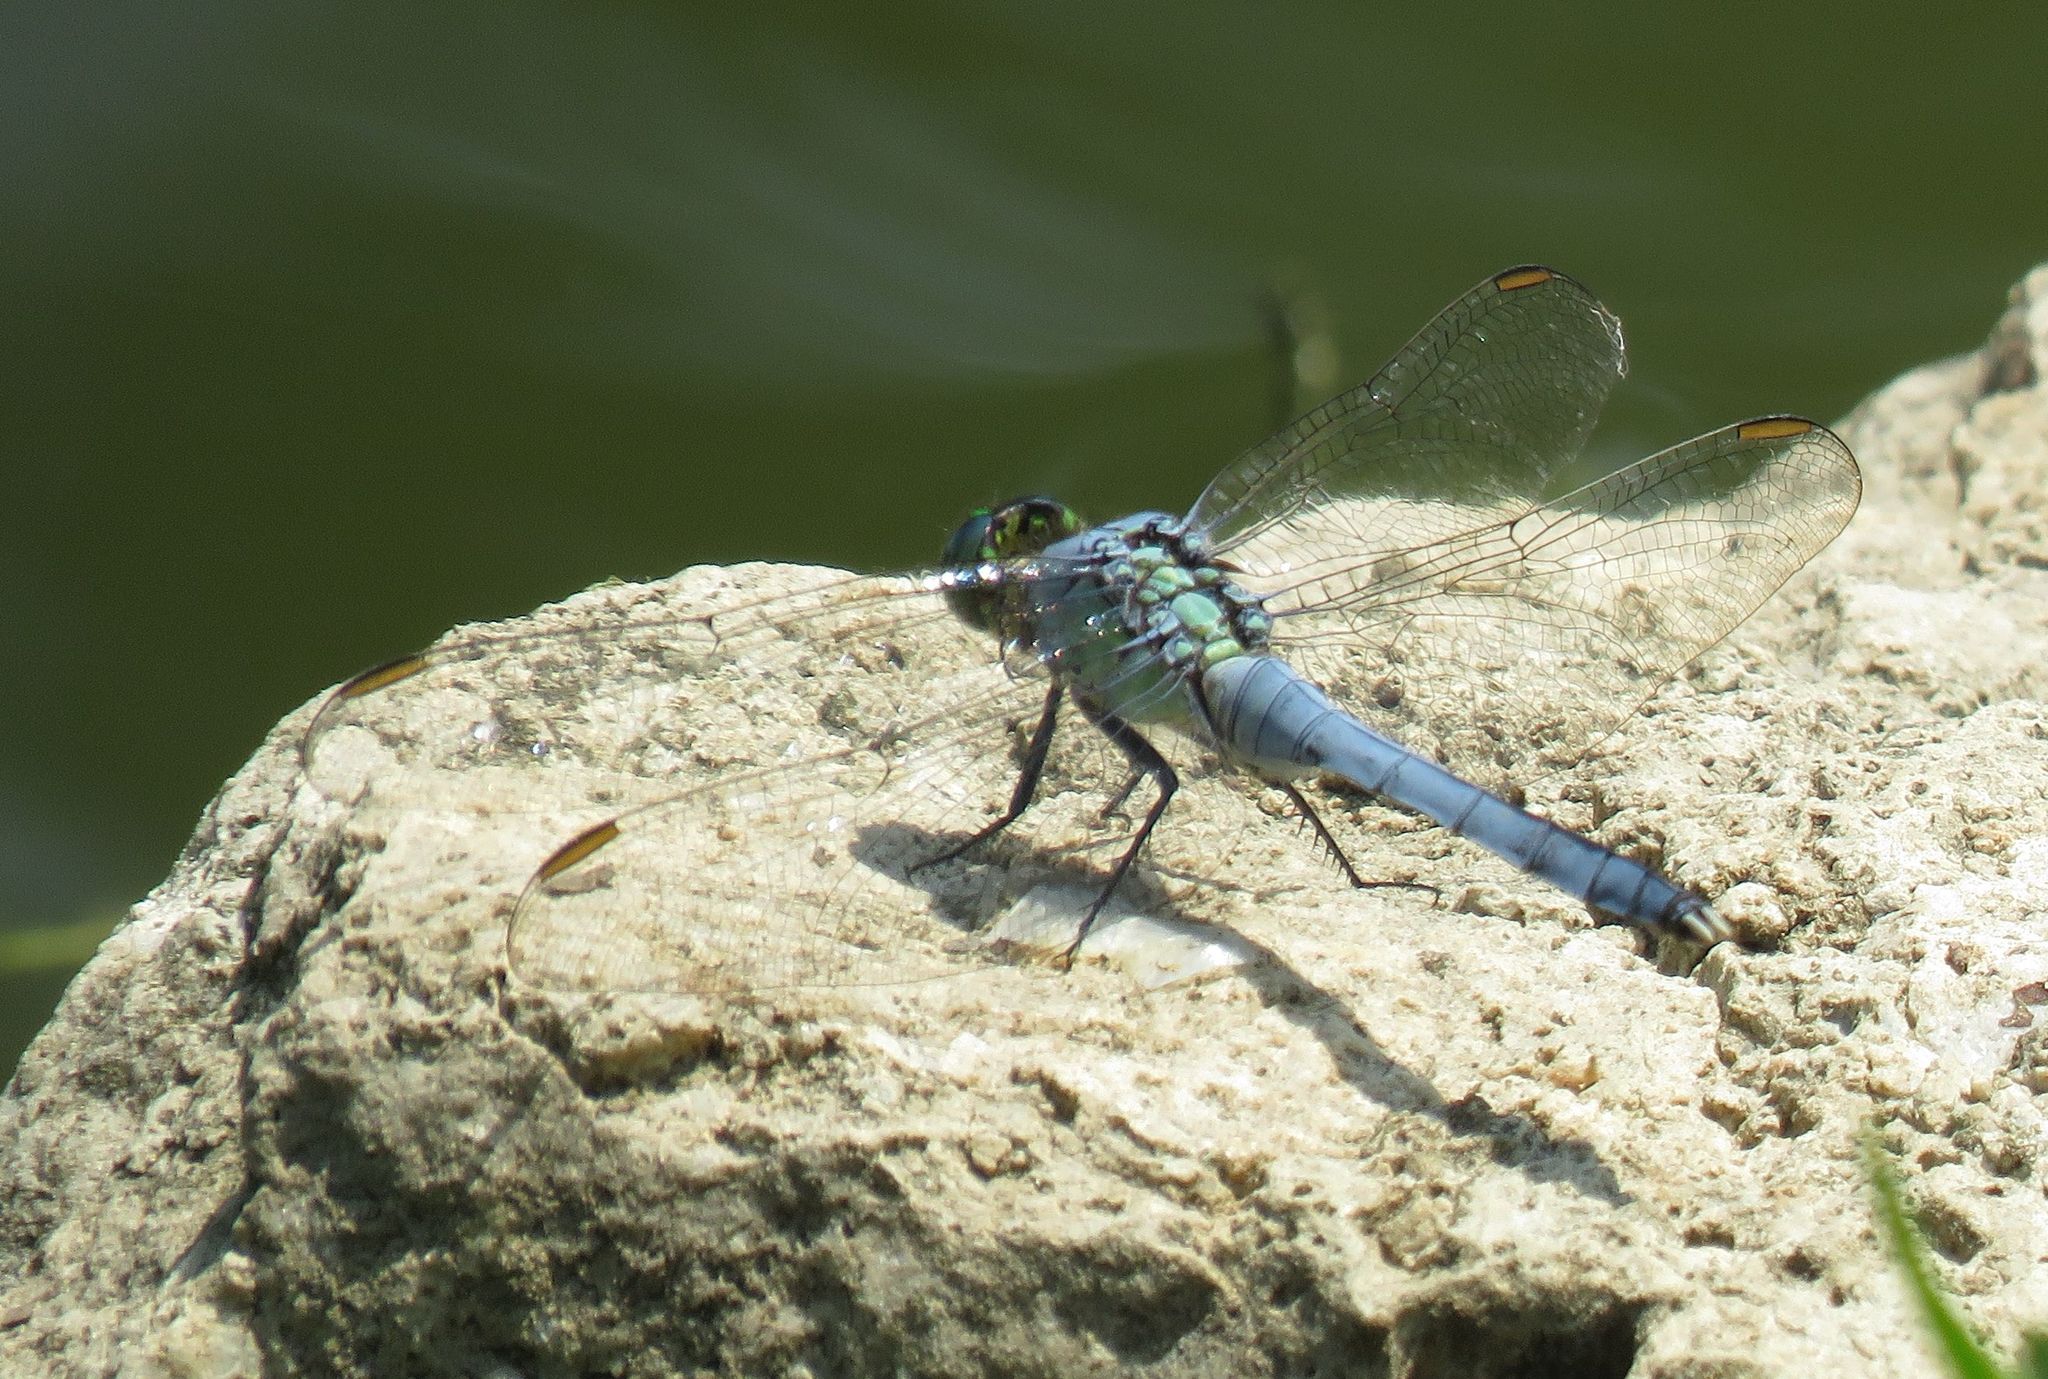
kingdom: Animalia
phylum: Arthropoda
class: Insecta
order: Odonata
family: Libellulidae
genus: Erythemis
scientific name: Erythemis simplicicollis
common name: Eastern pondhawk
